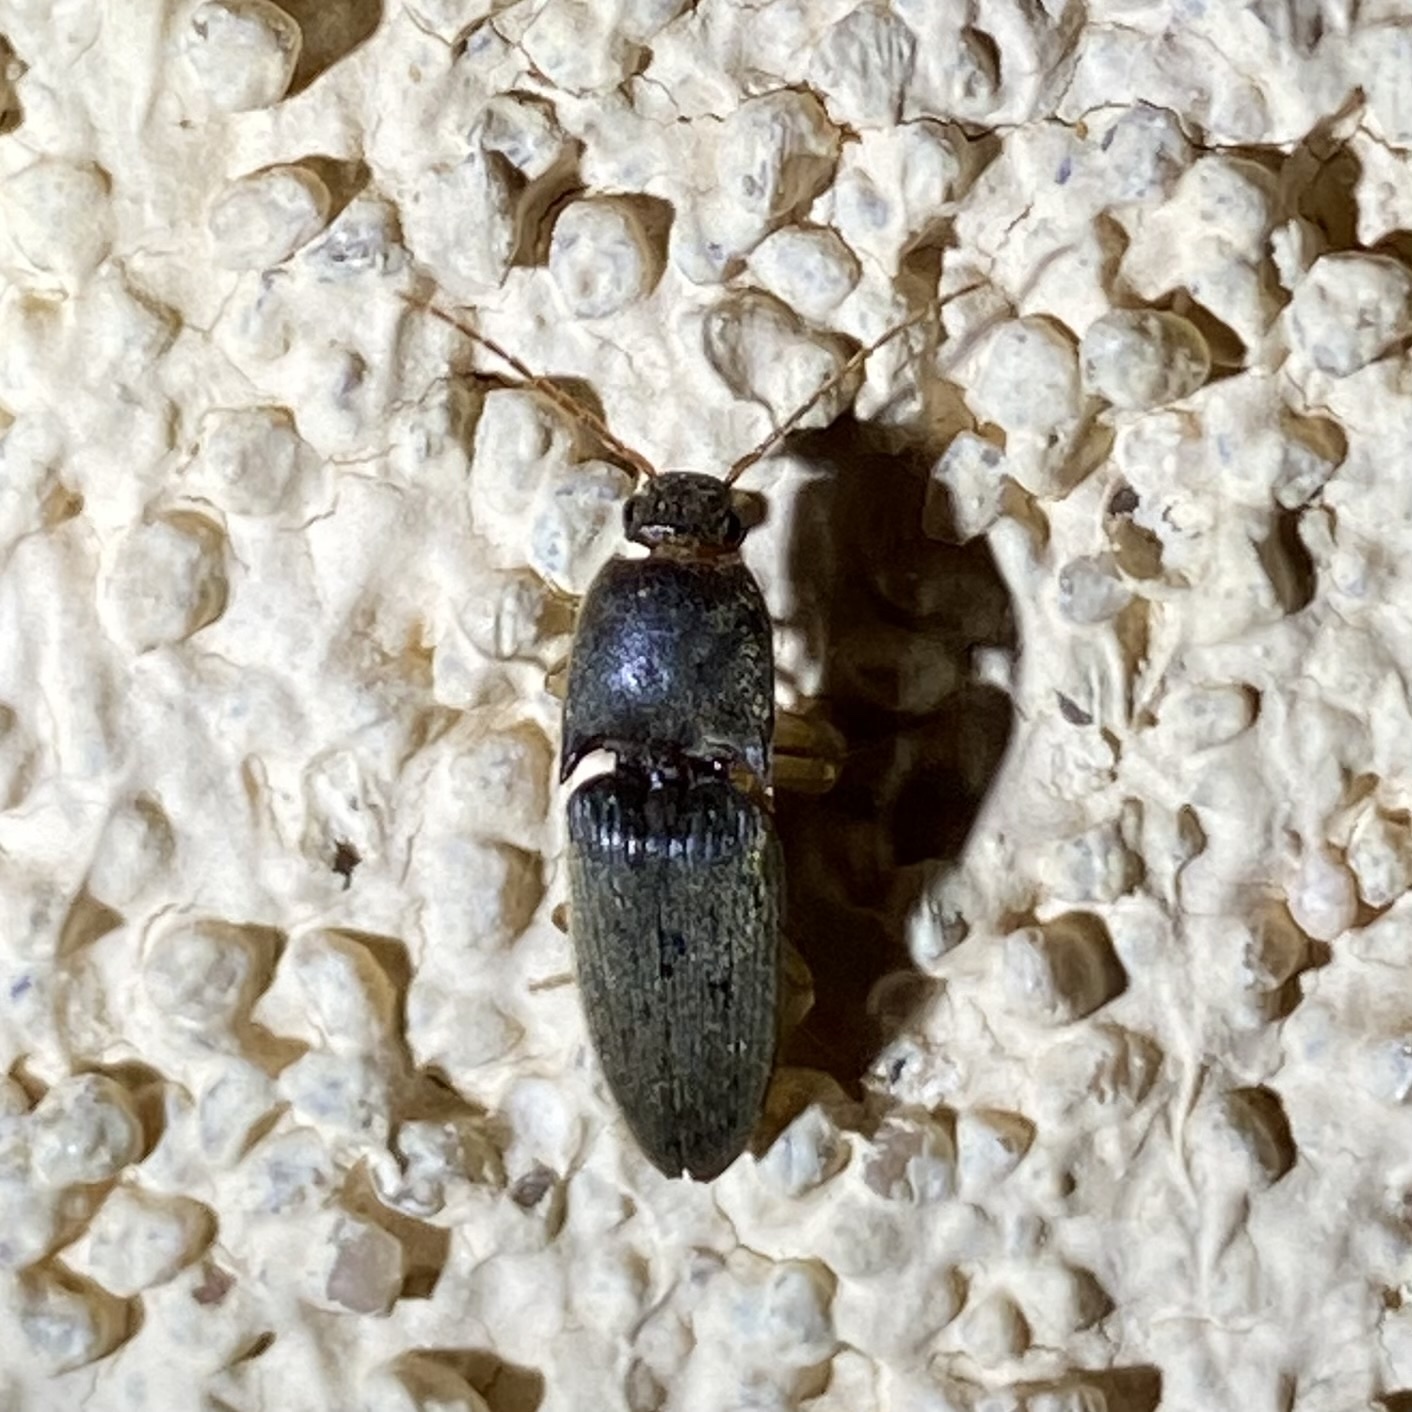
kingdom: Animalia
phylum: Arthropoda
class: Insecta
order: Coleoptera
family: Elateridae
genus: Conoderus
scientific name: Conoderus exsul
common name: Click beetle
